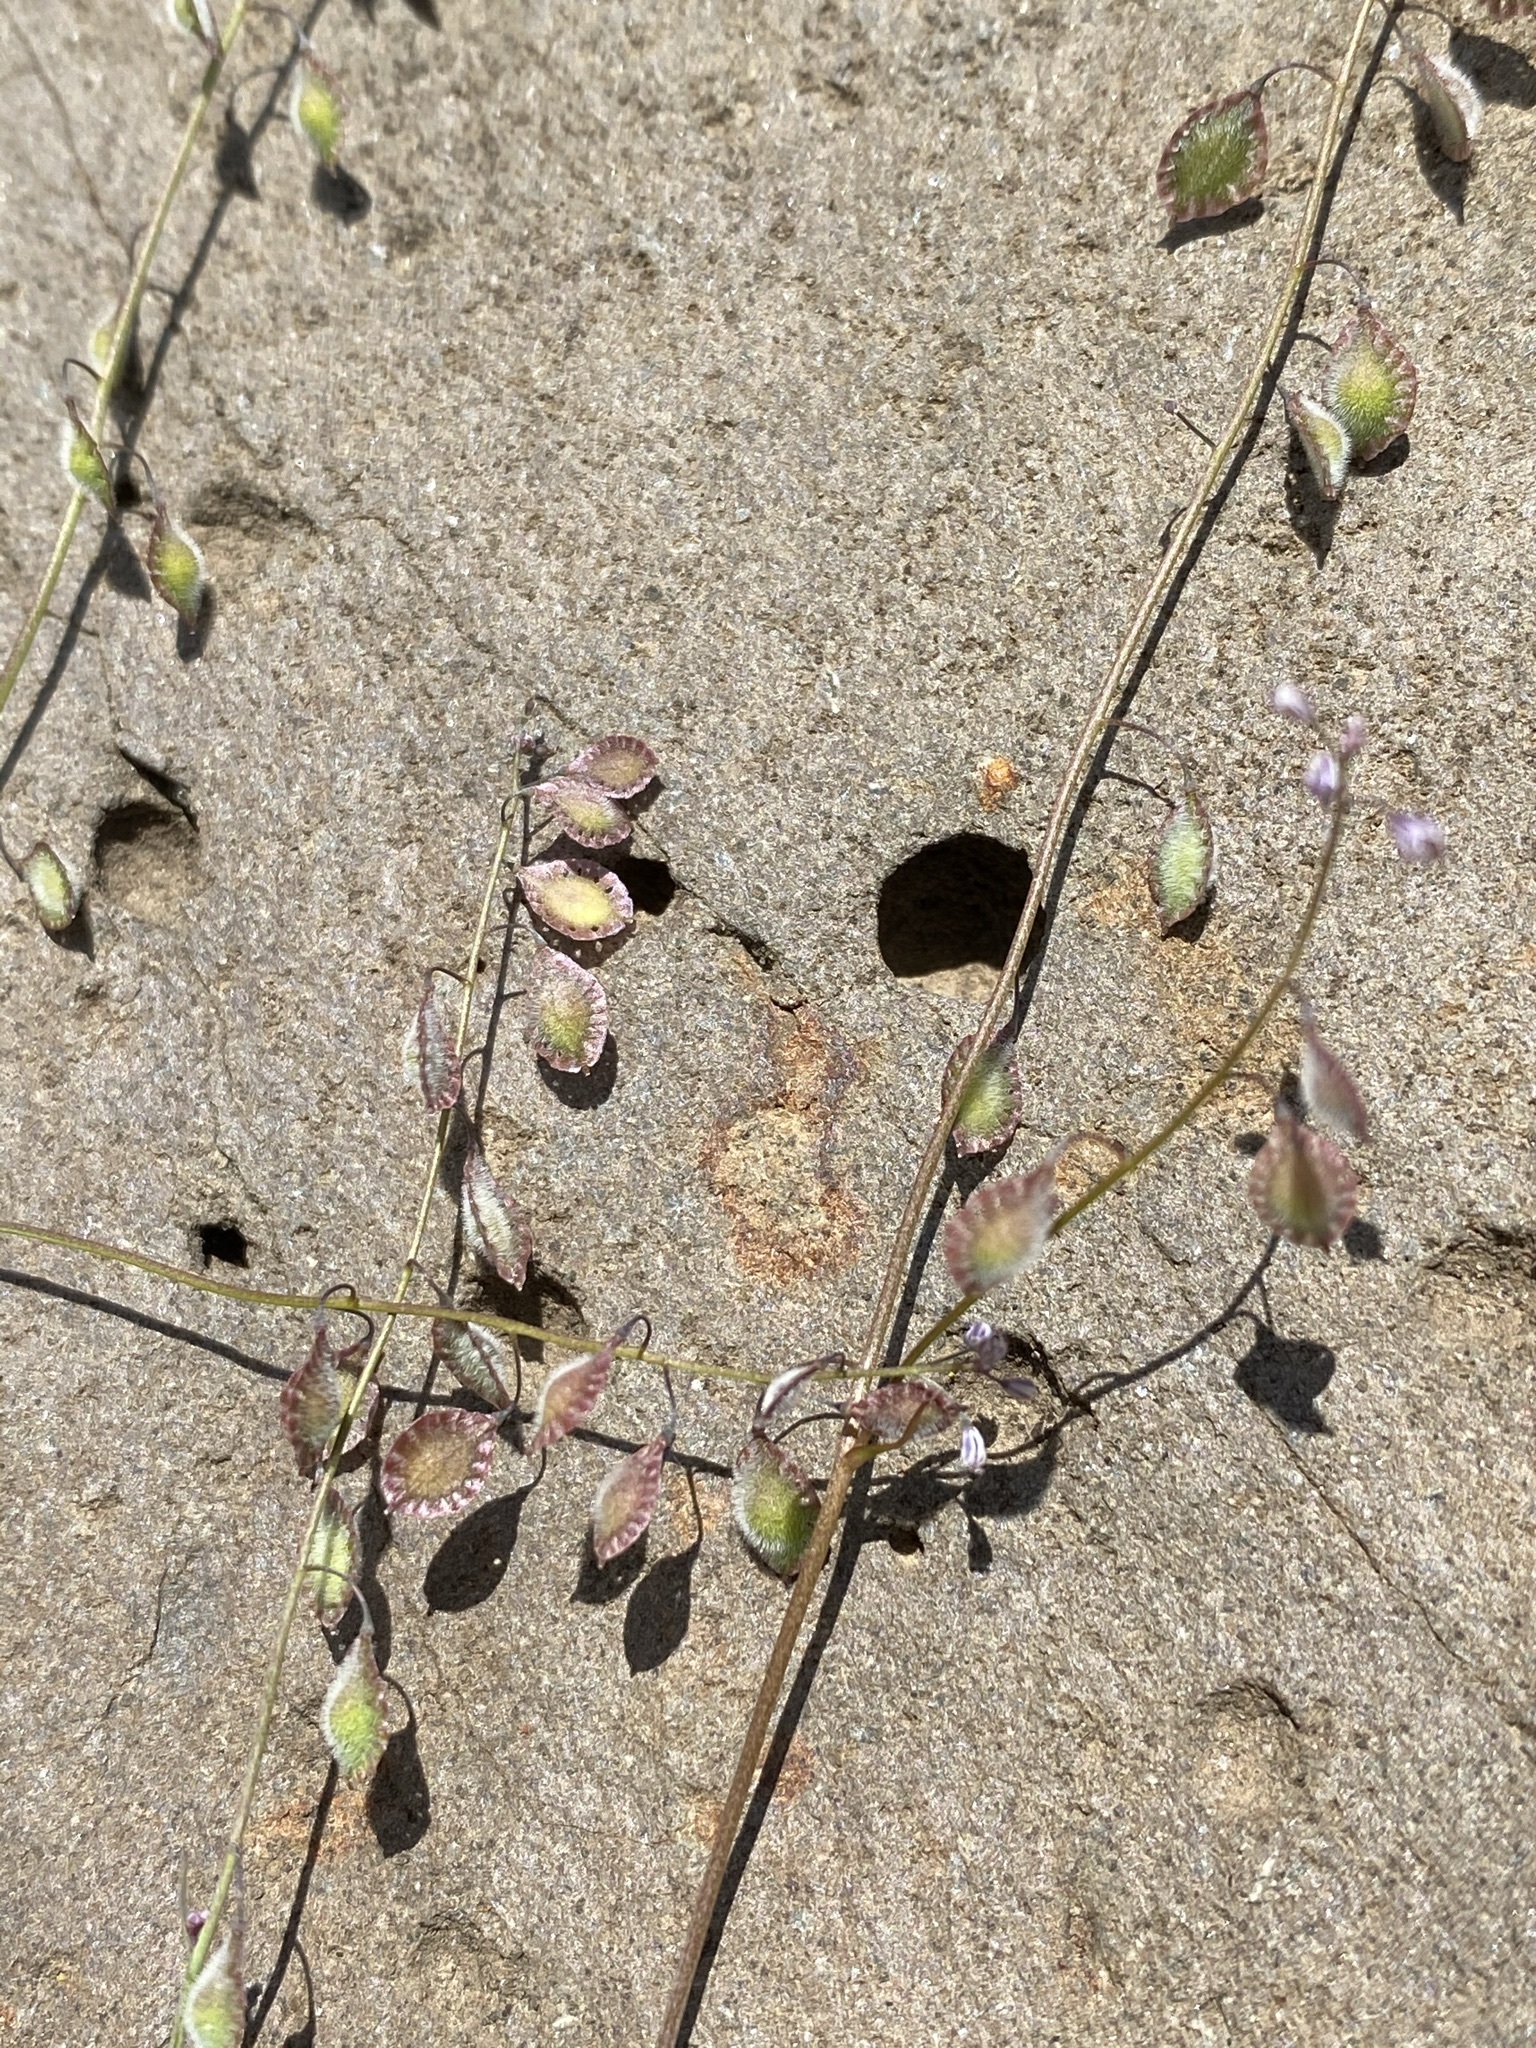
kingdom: Plantae
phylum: Tracheophyta
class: Magnoliopsida
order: Brassicales
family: Brassicaceae
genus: Thysanocarpus
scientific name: Thysanocarpus curvipes
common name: Sand fringepod
